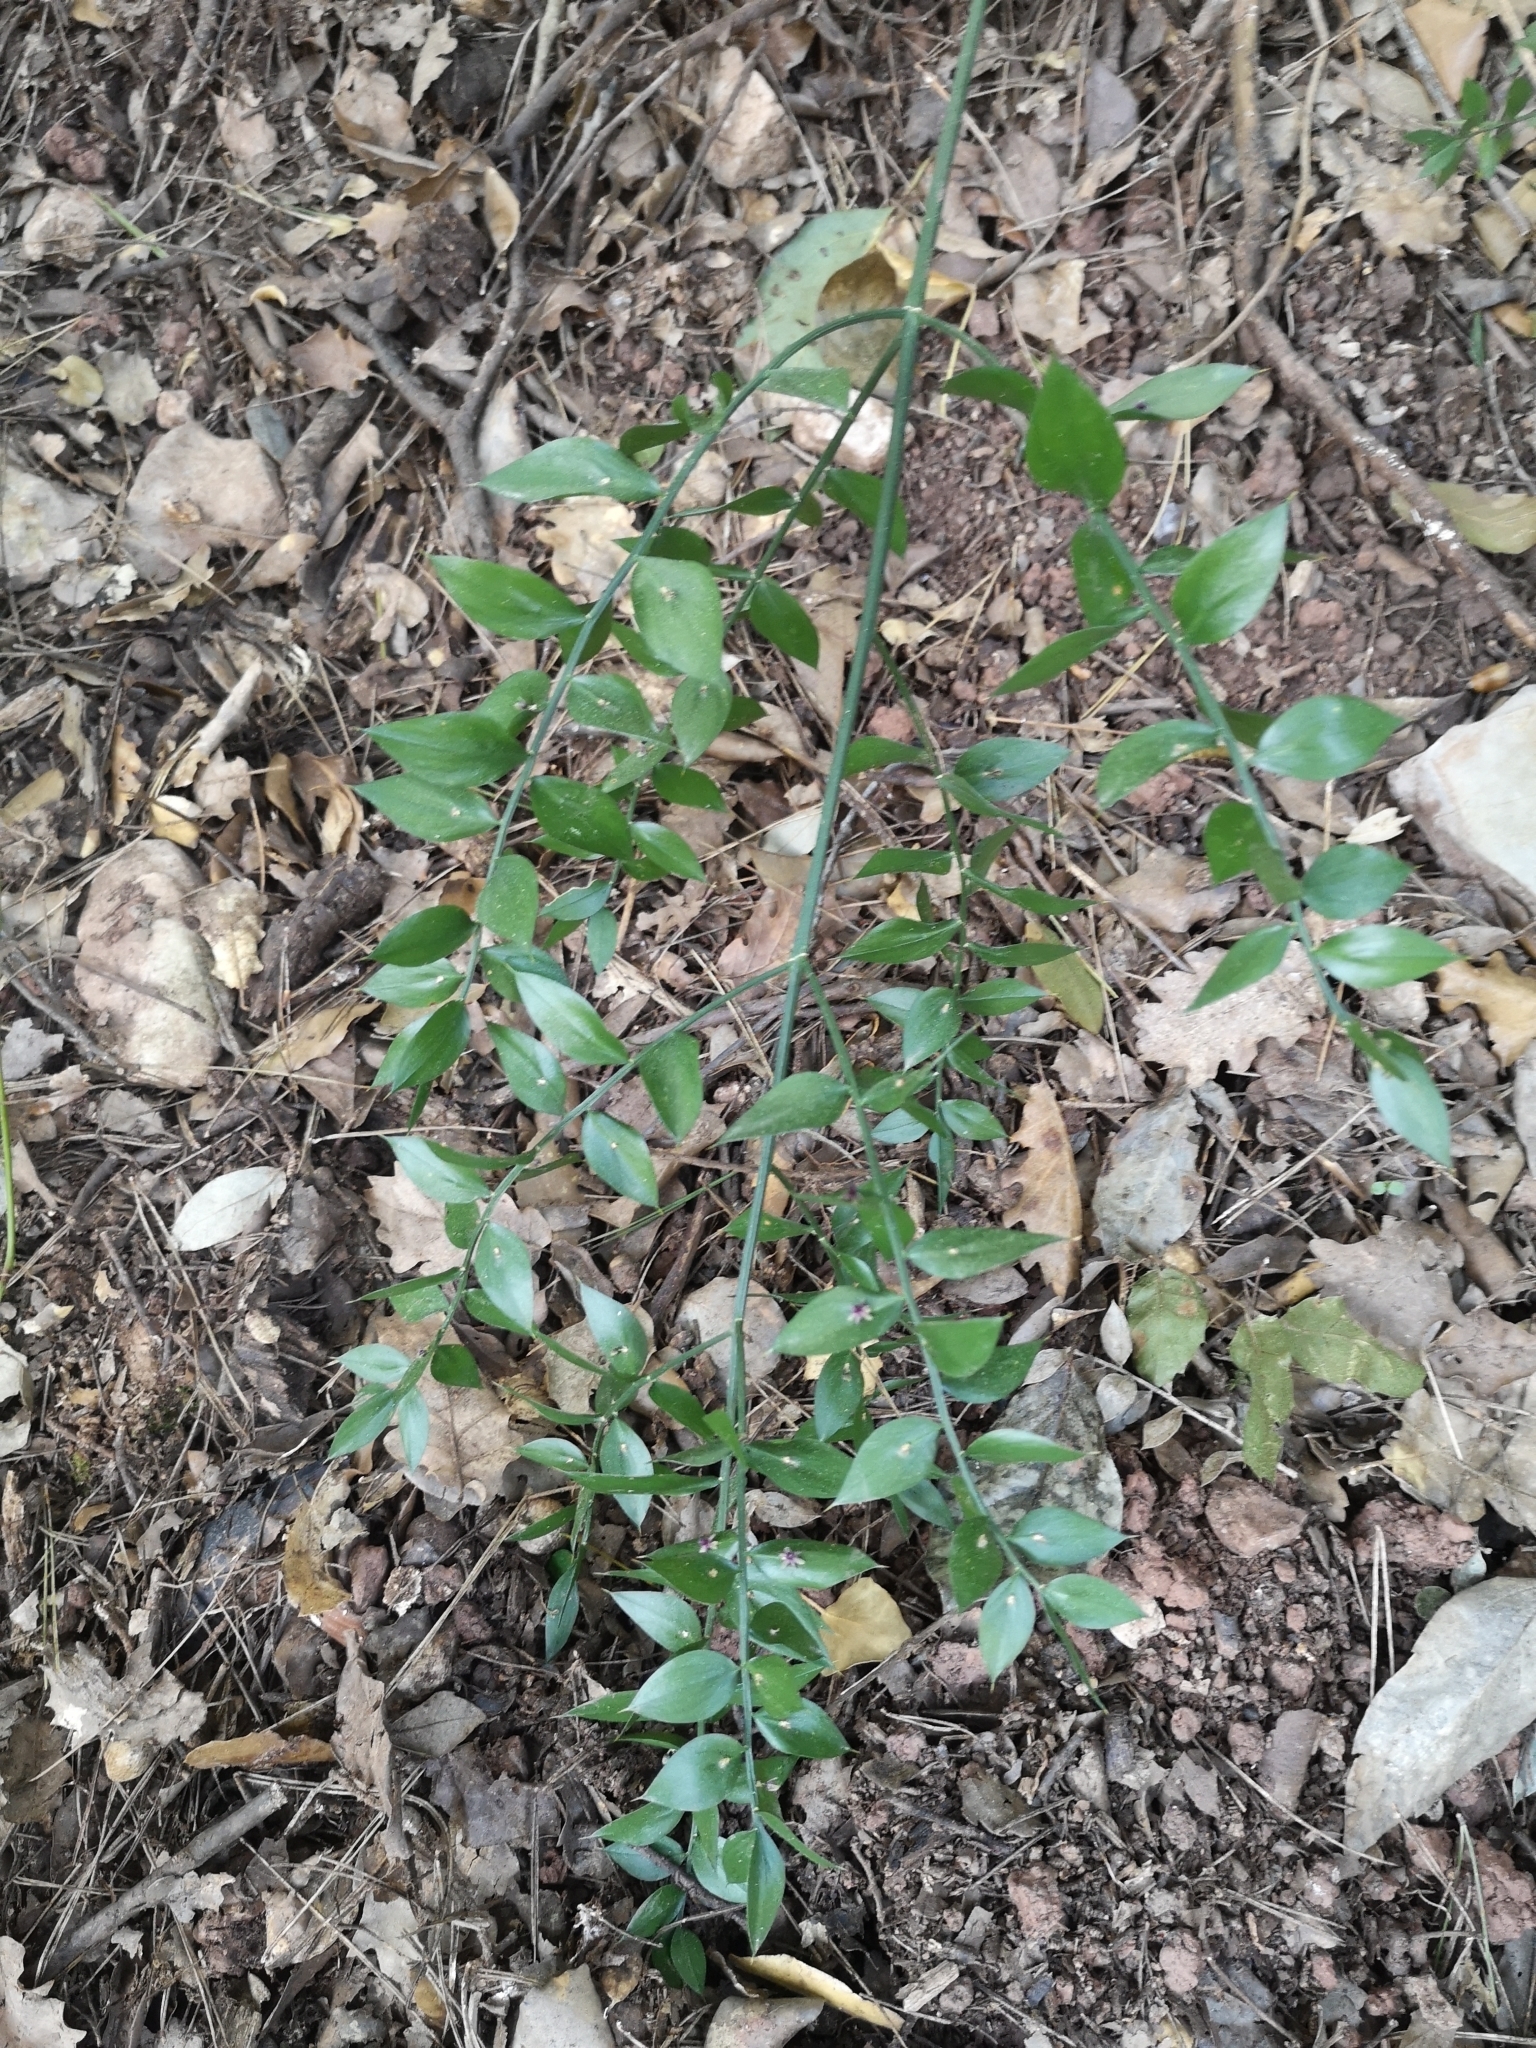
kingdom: Plantae
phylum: Tracheophyta
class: Liliopsida
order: Asparagales
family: Asparagaceae
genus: Ruscus
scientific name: Ruscus aculeatus
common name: Butcher's-broom
